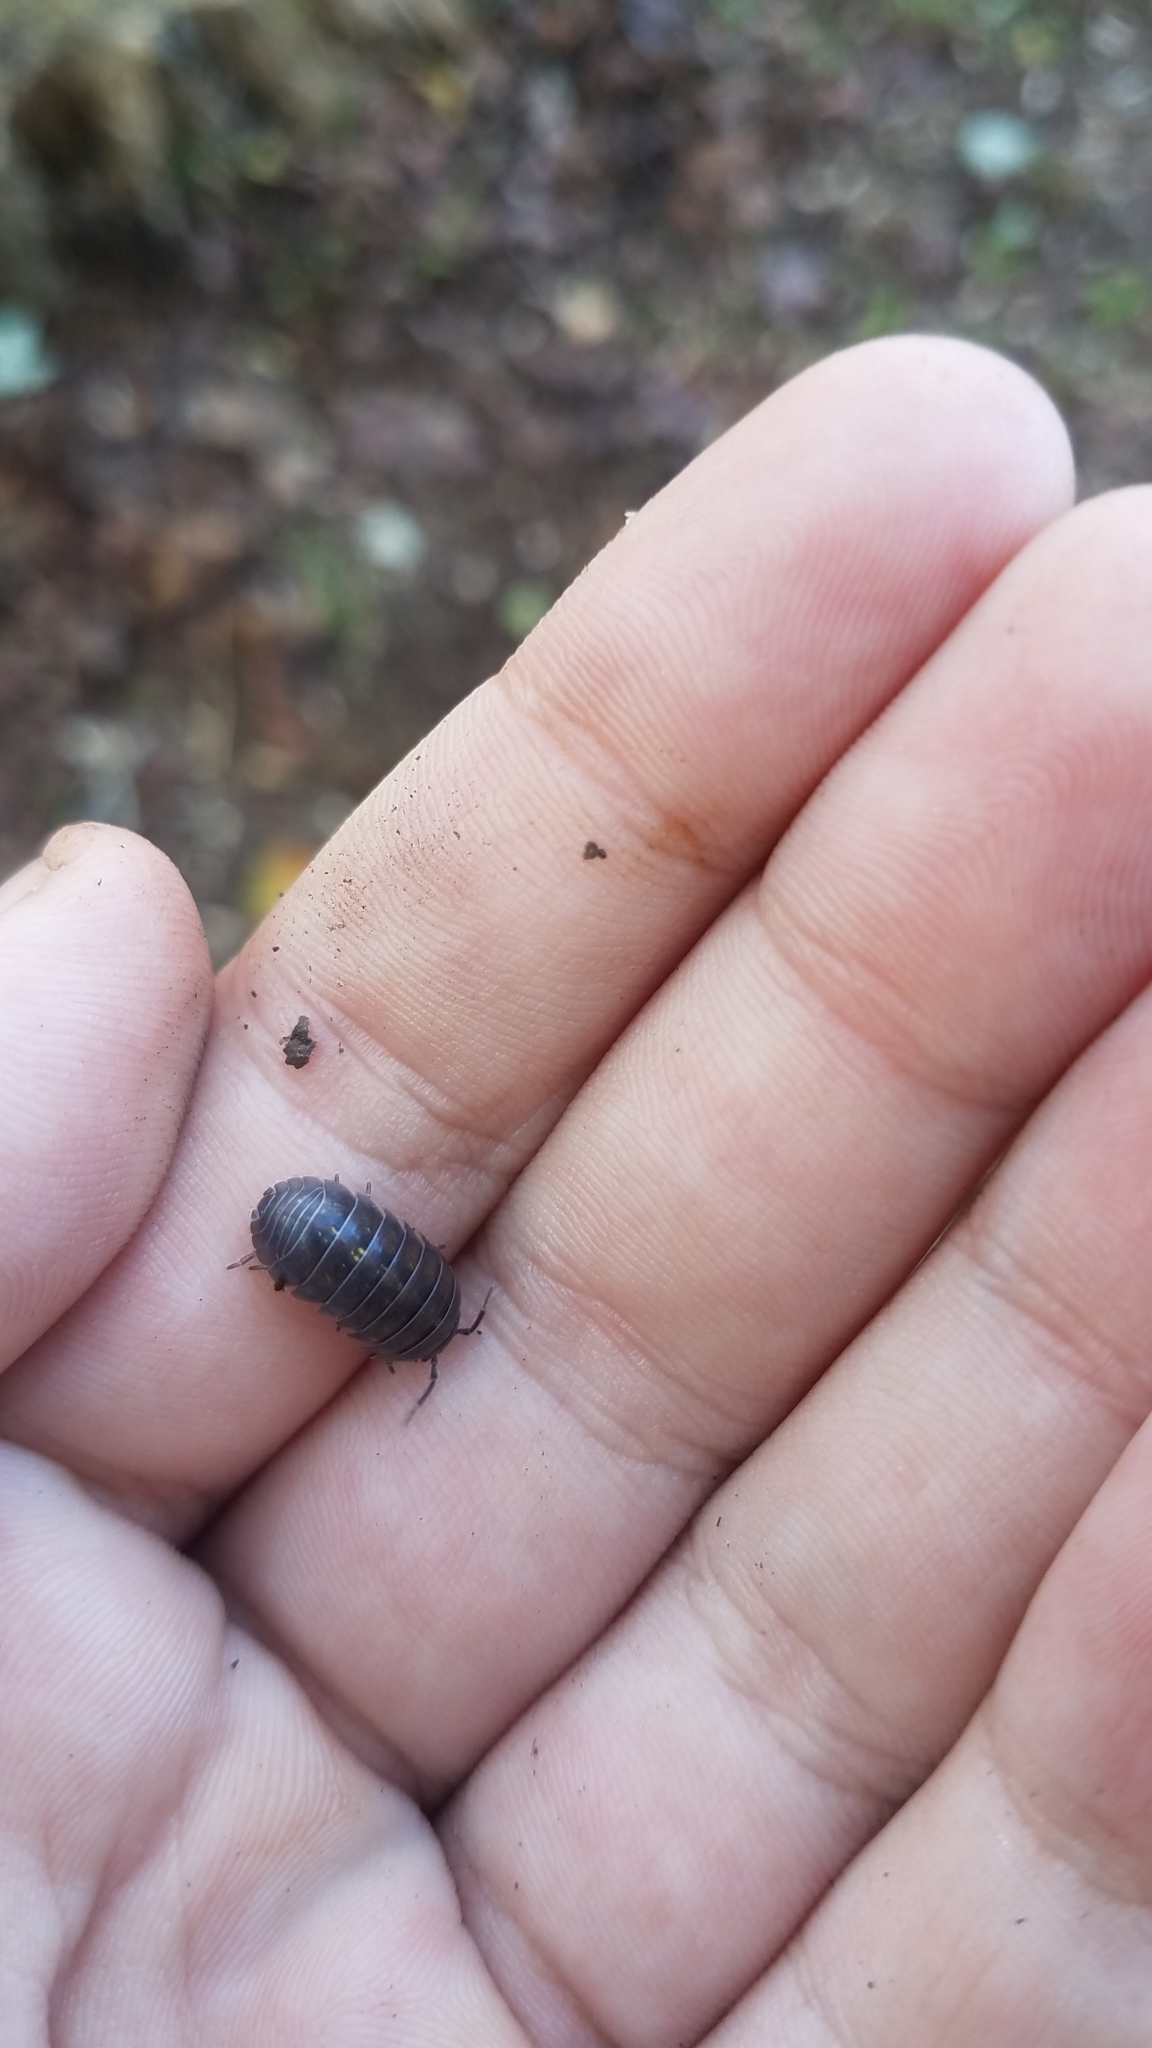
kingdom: Animalia
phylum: Arthropoda
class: Malacostraca
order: Isopoda
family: Armadillidiidae
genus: Armadillidium
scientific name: Armadillidium vulgare
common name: Common pill woodlouse
